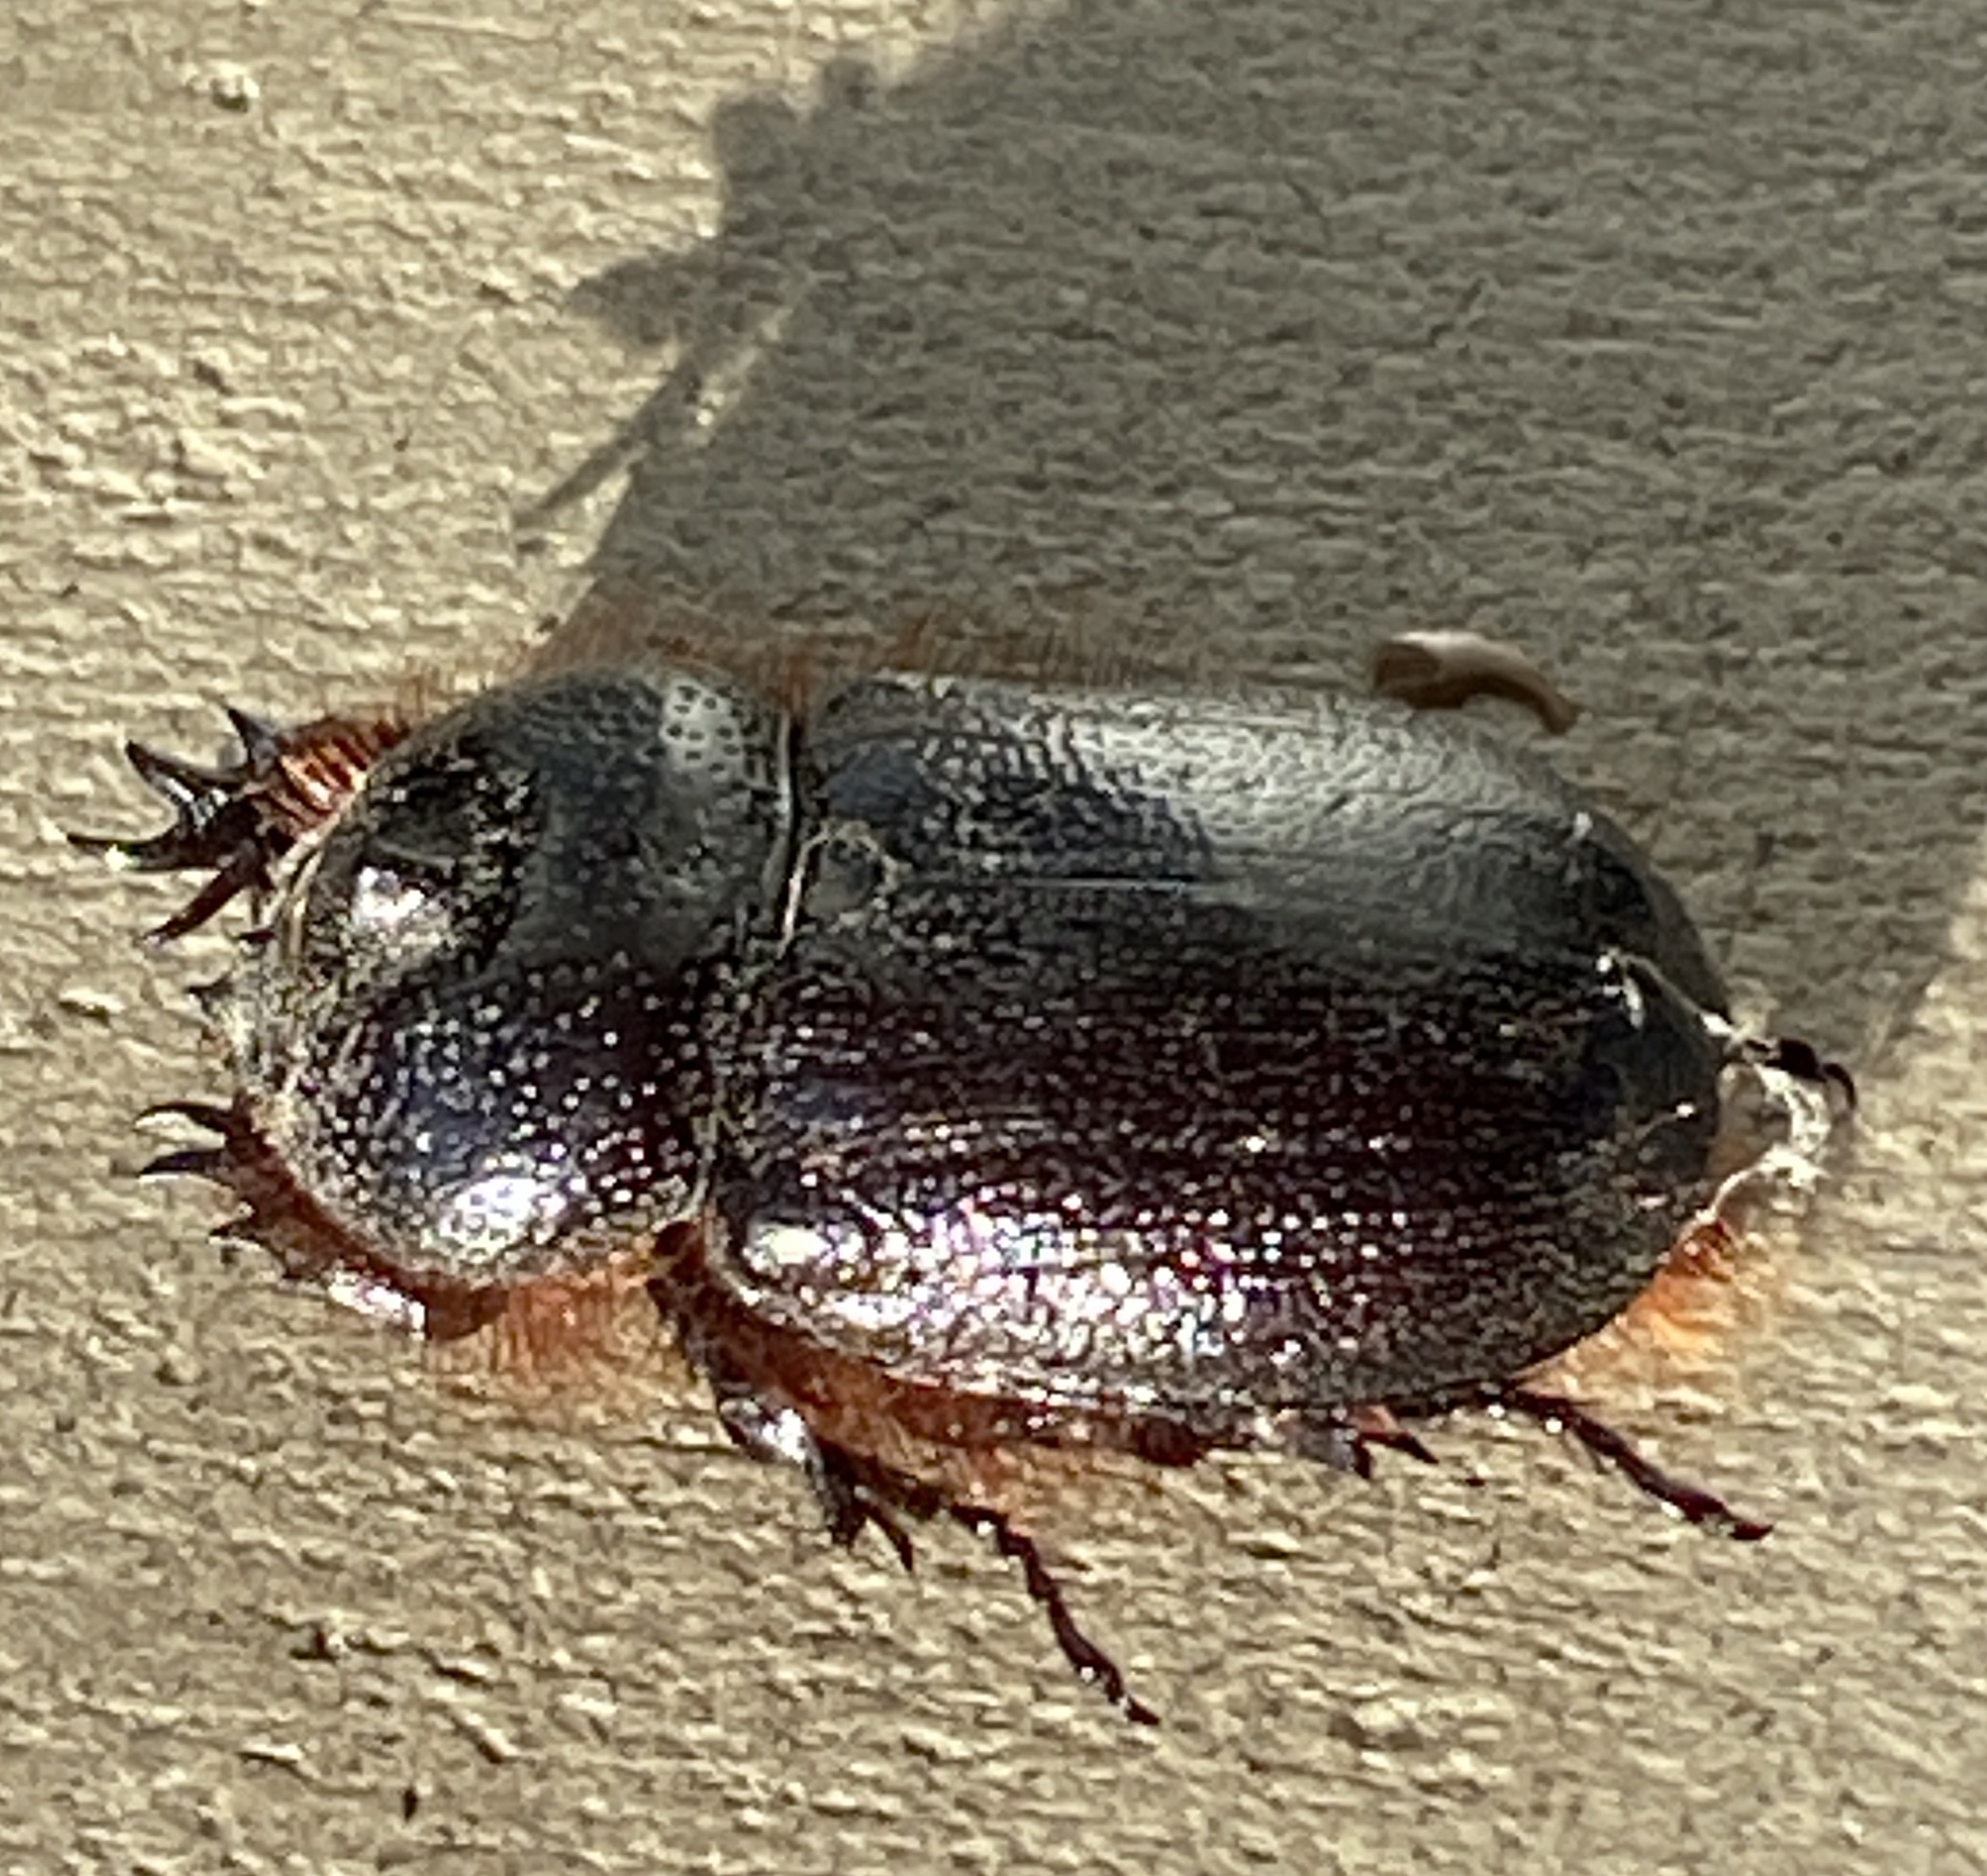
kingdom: Animalia
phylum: Arthropoda
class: Insecta
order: Coleoptera
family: Scarabaeidae
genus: Syrichthomorphus
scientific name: Syrichthomorphus termitophilus
